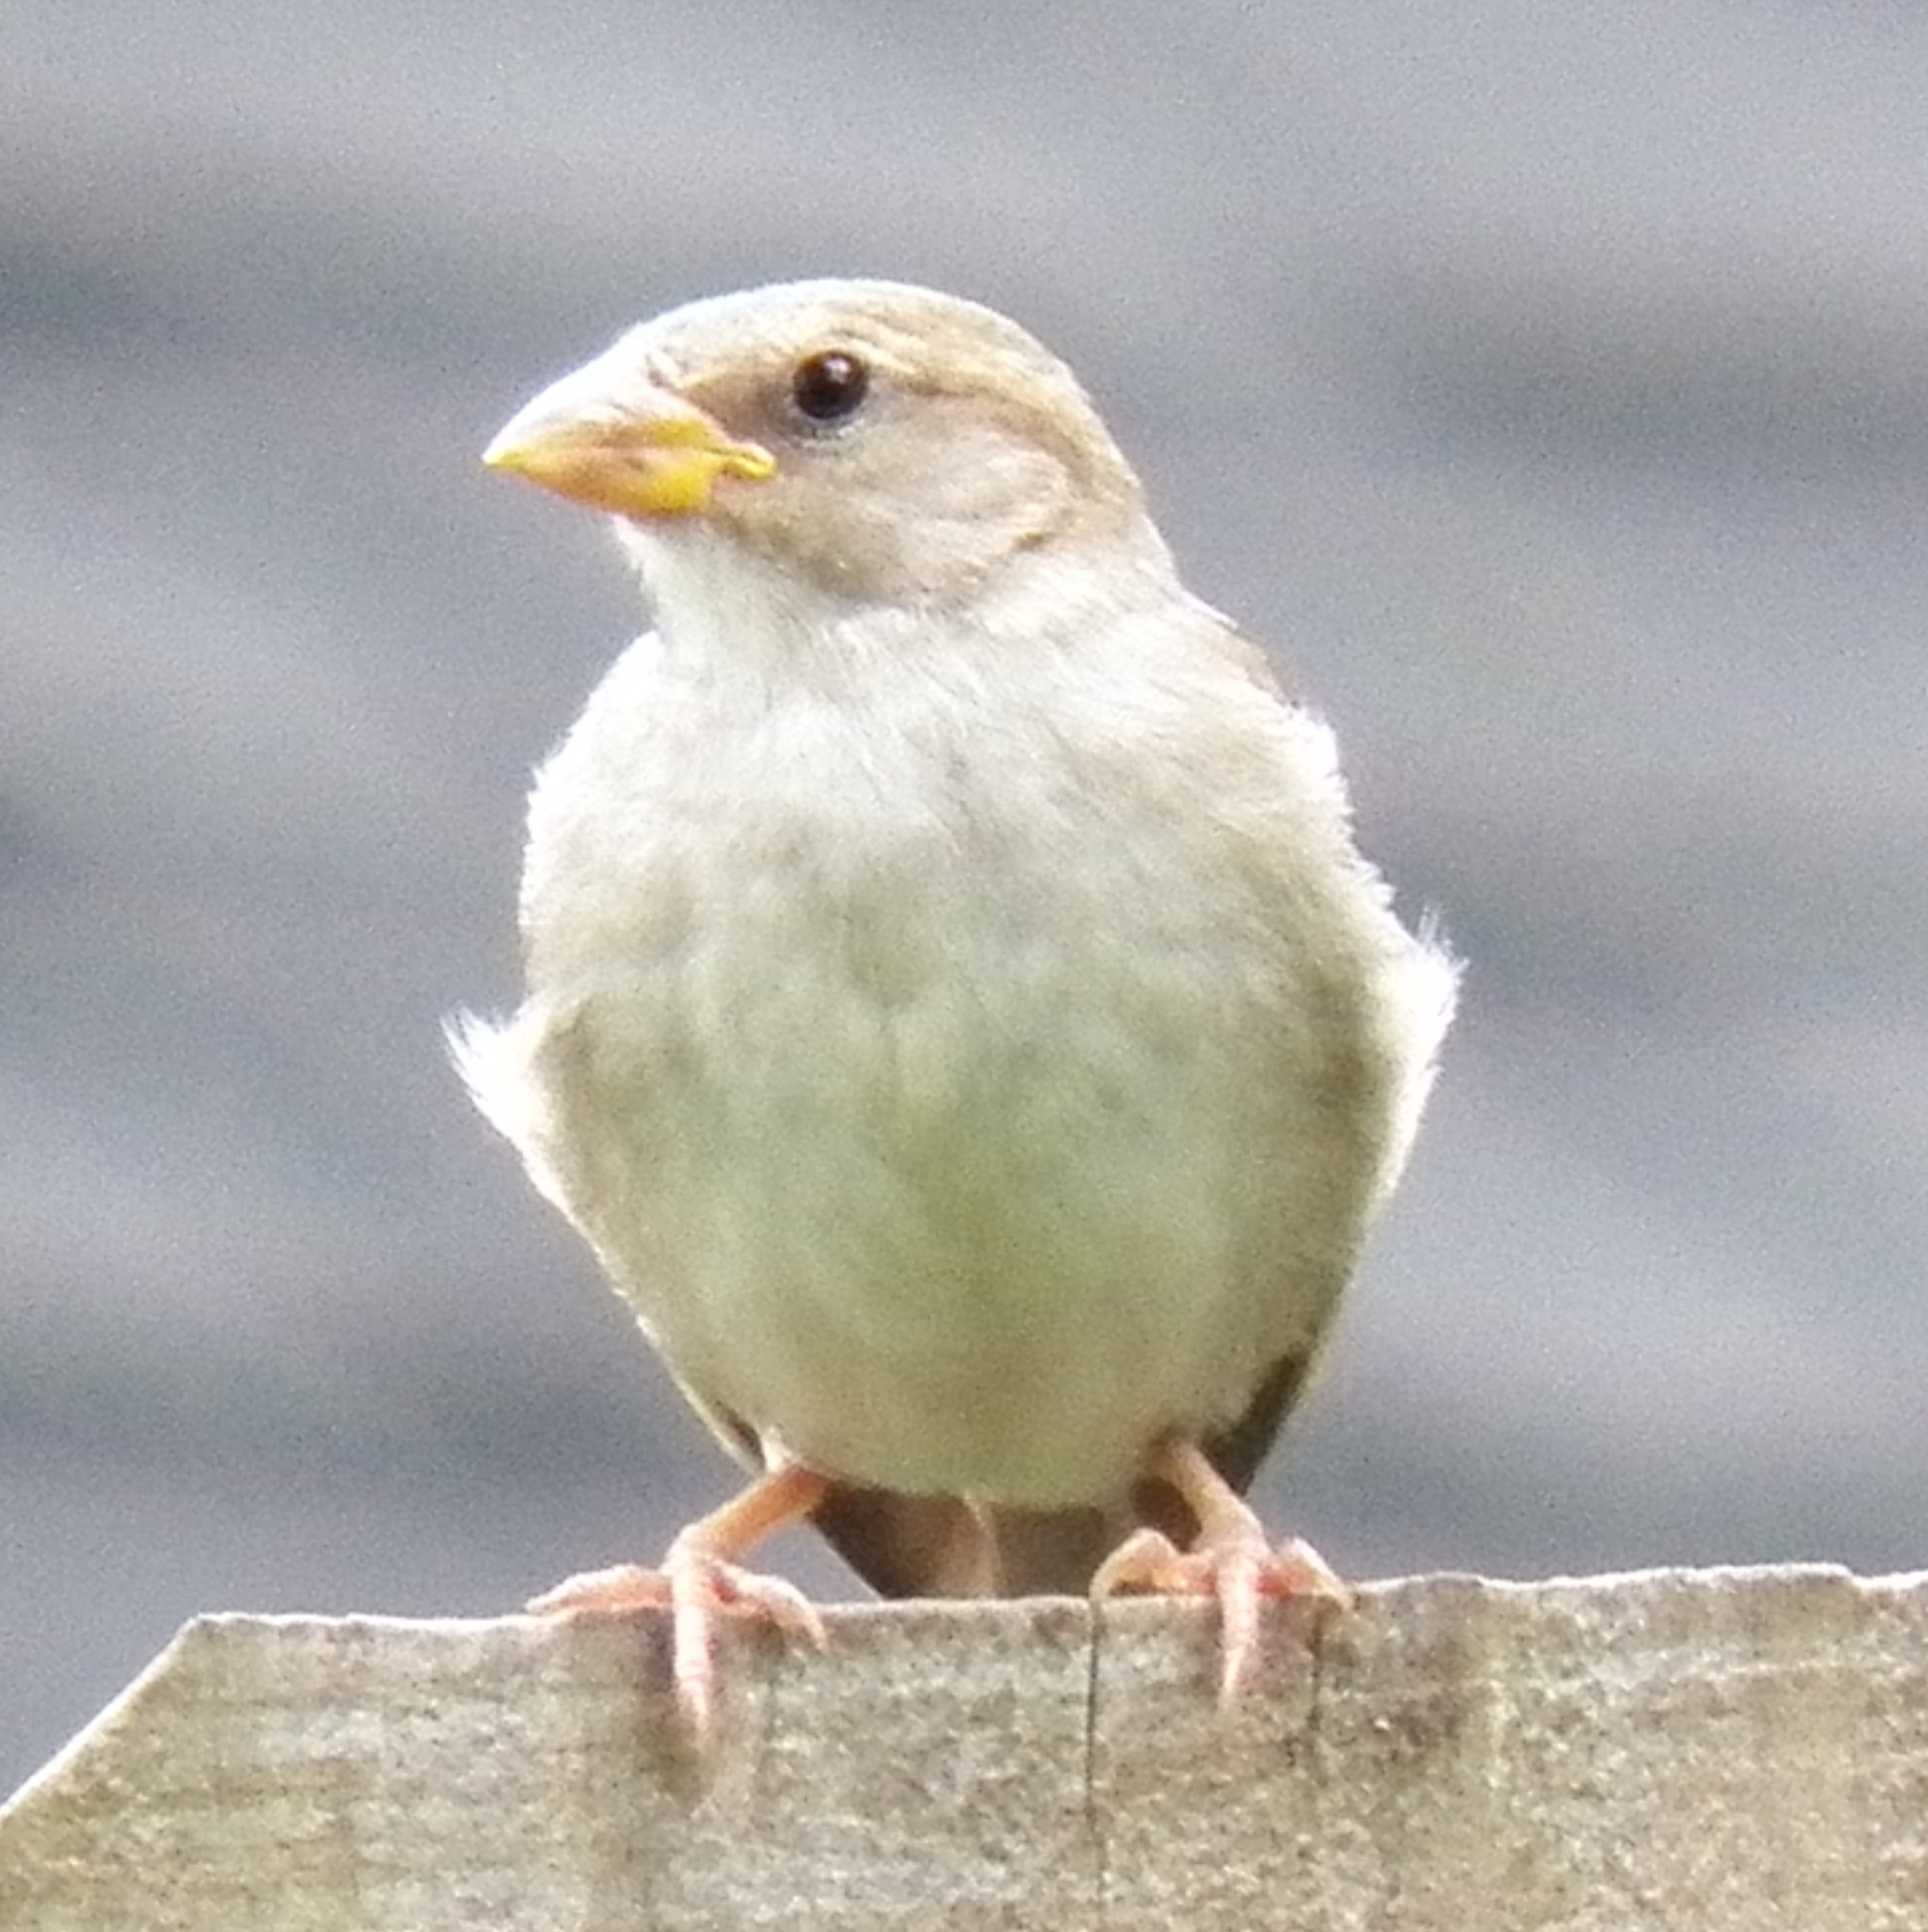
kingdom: Animalia
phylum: Chordata
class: Aves
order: Passeriformes
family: Passeridae
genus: Passer
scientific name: Passer domesticus
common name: House sparrow
